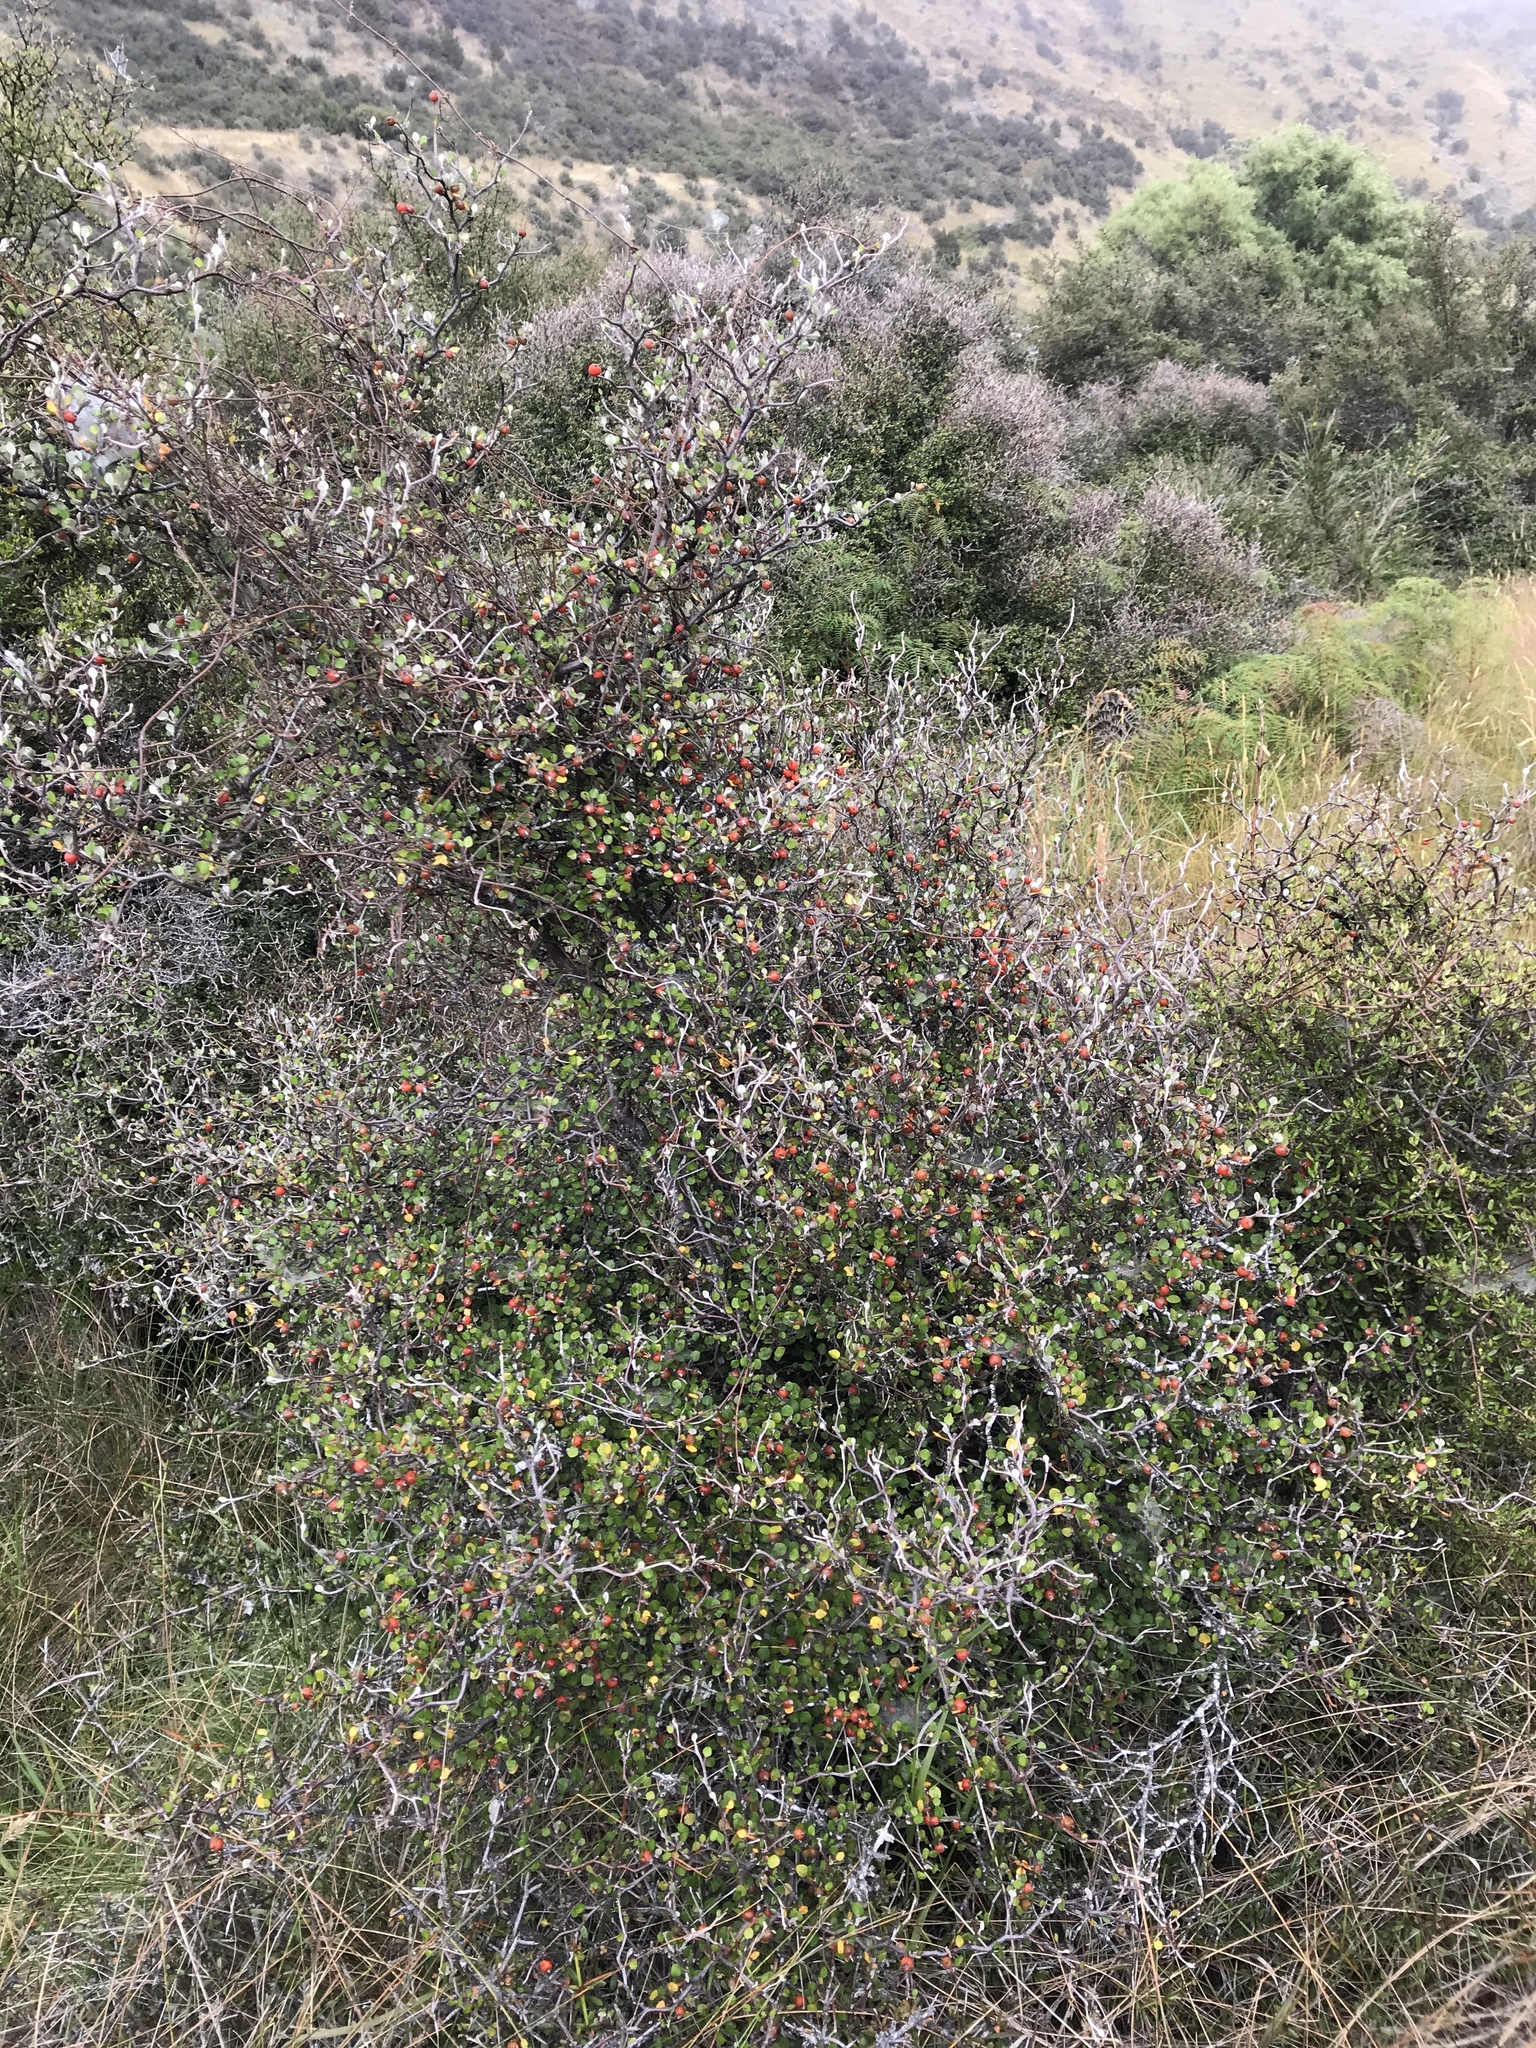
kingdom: Plantae
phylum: Tracheophyta
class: Magnoliopsida
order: Asterales
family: Argophyllaceae
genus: Corokia
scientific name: Corokia cotoneaster
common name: Wire nettingbush
